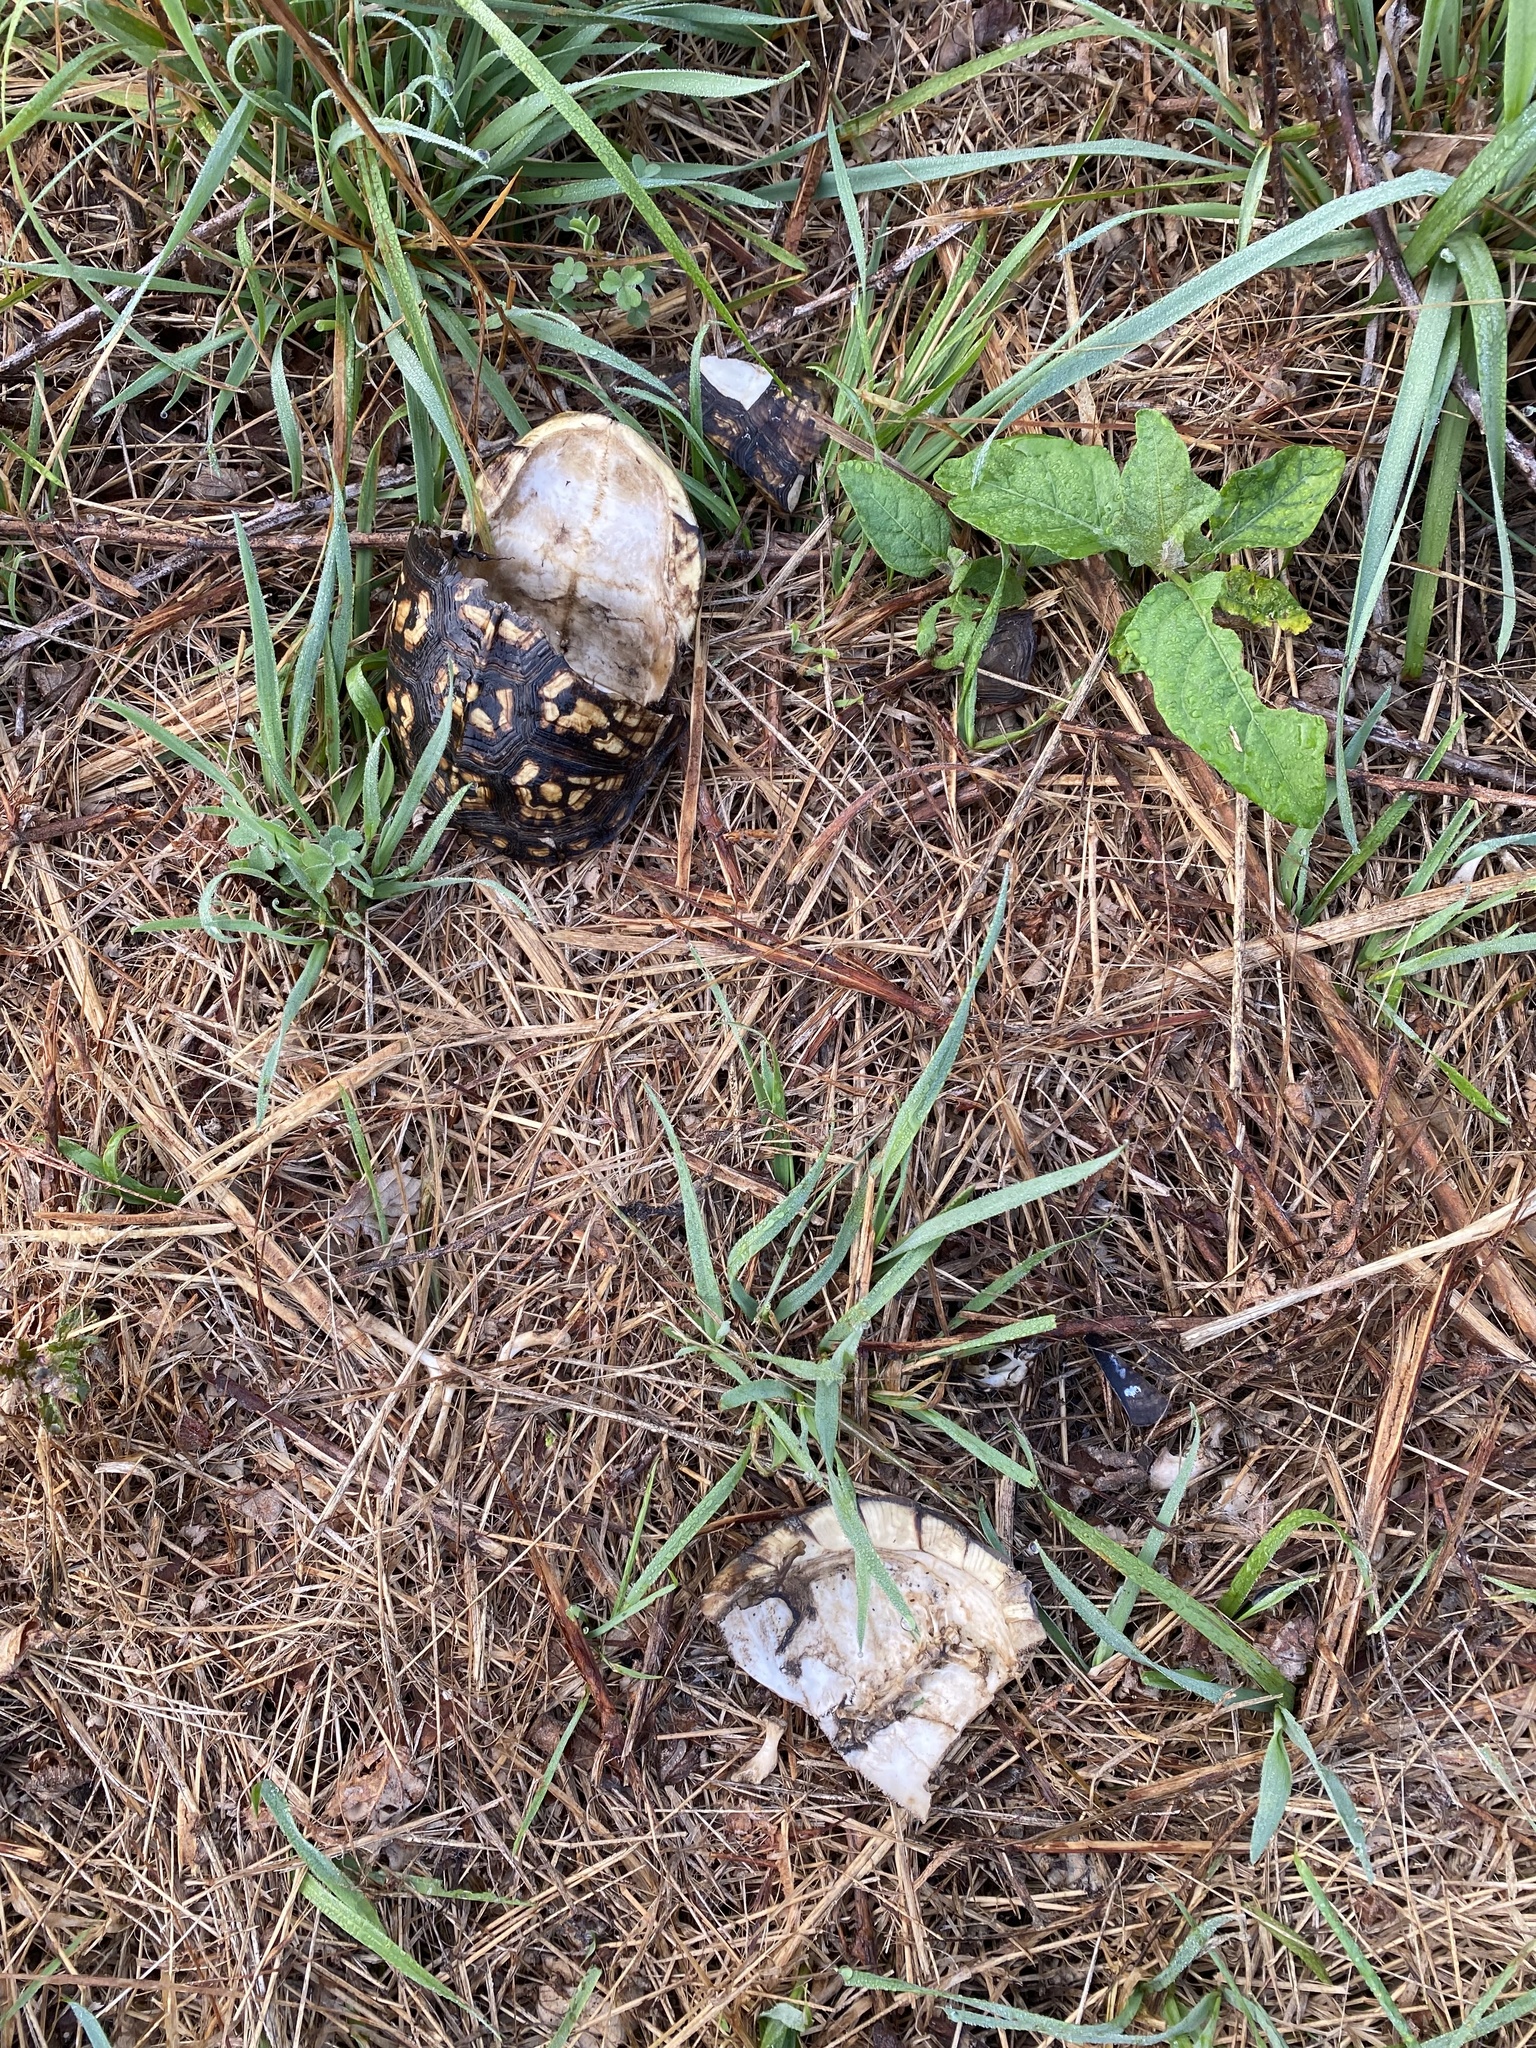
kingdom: Animalia
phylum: Chordata
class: Testudines
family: Emydidae
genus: Terrapene
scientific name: Terrapene carolina
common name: Common box turtle
